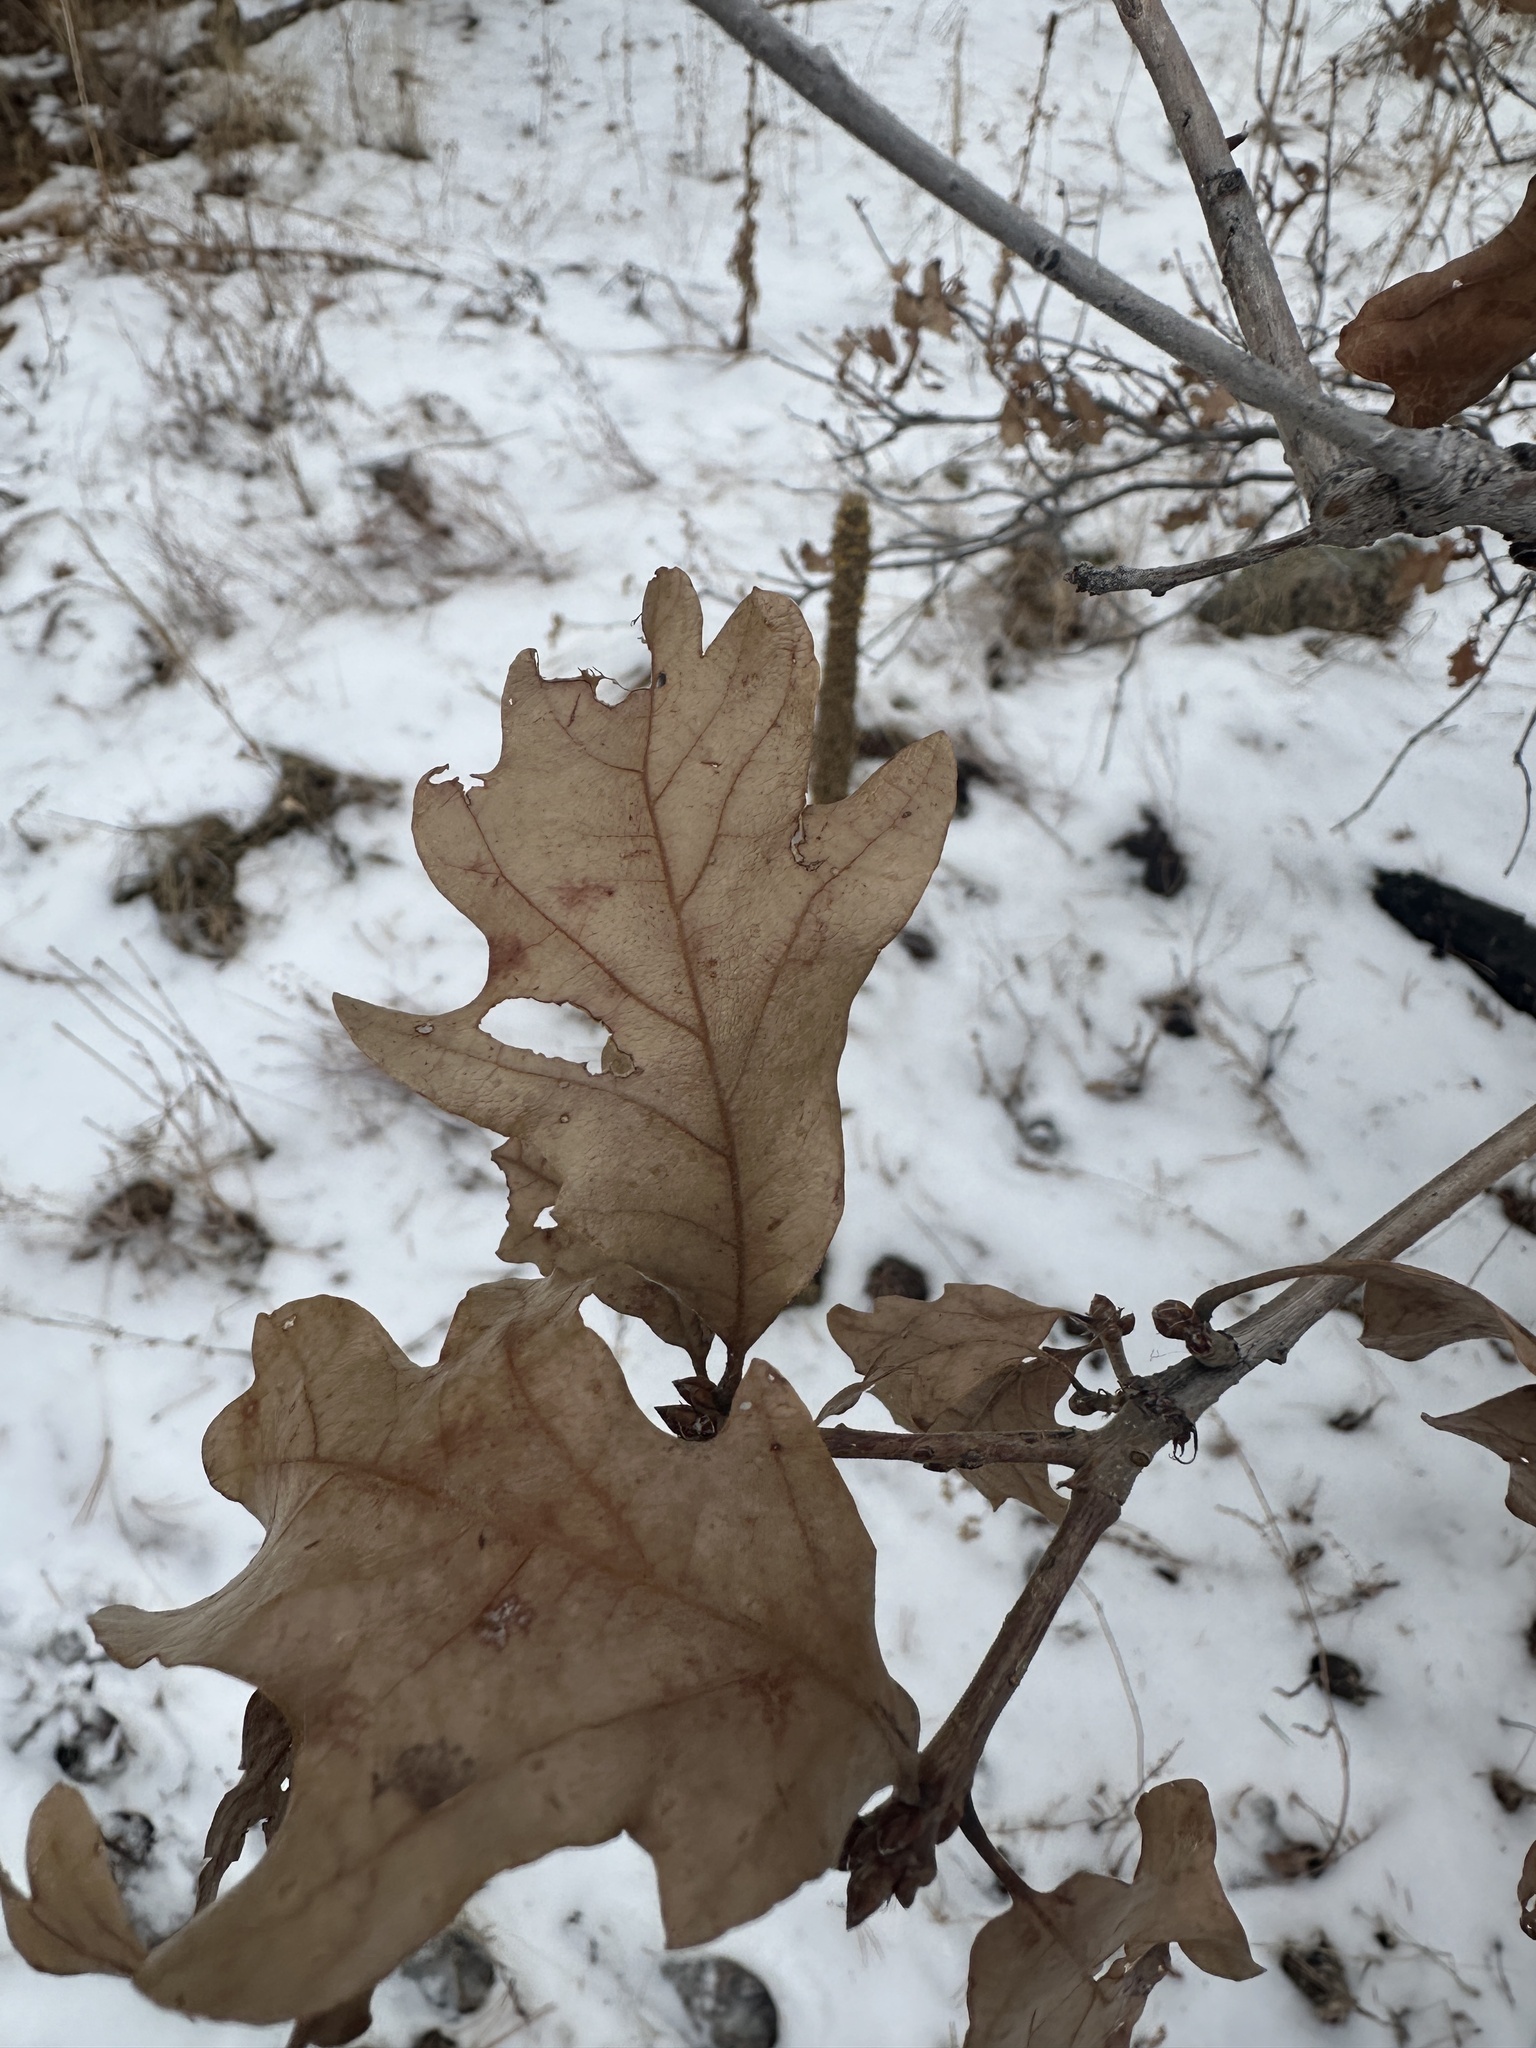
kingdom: Plantae
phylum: Tracheophyta
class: Magnoliopsida
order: Fagales
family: Fagaceae
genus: Quercus
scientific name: Quercus gambelii
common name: Gambel oak
